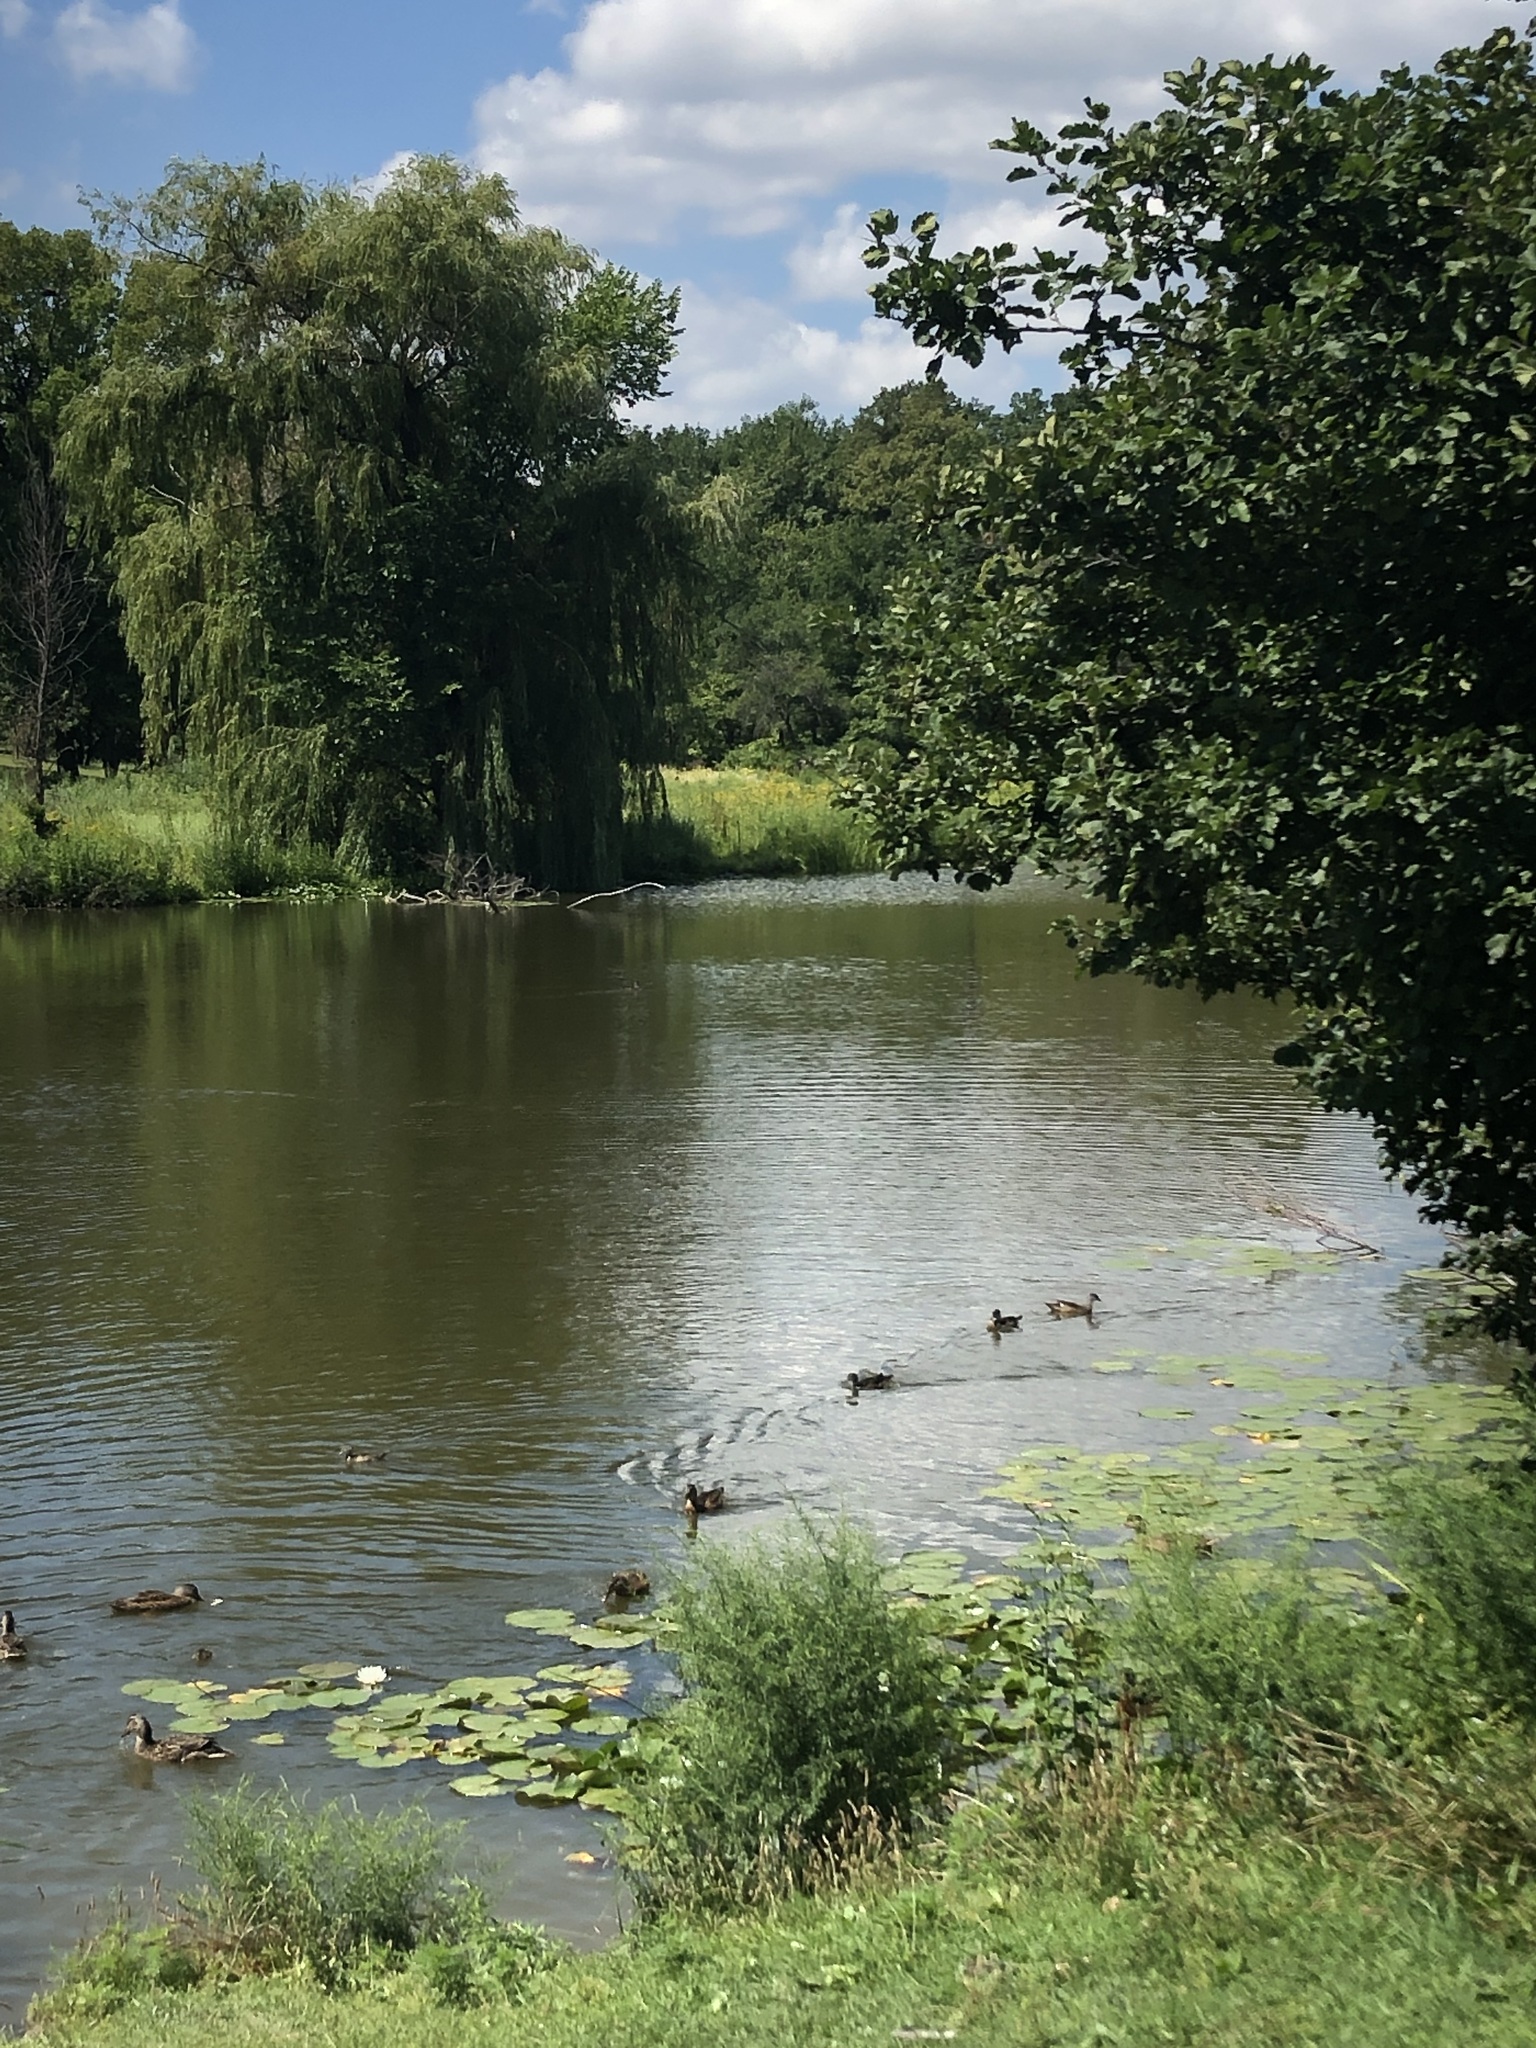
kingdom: Animalia
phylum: Chordata
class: Aves
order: Anseriformes
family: Anatidae
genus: Anas
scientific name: Anas platyrhynchos
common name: Mallard
